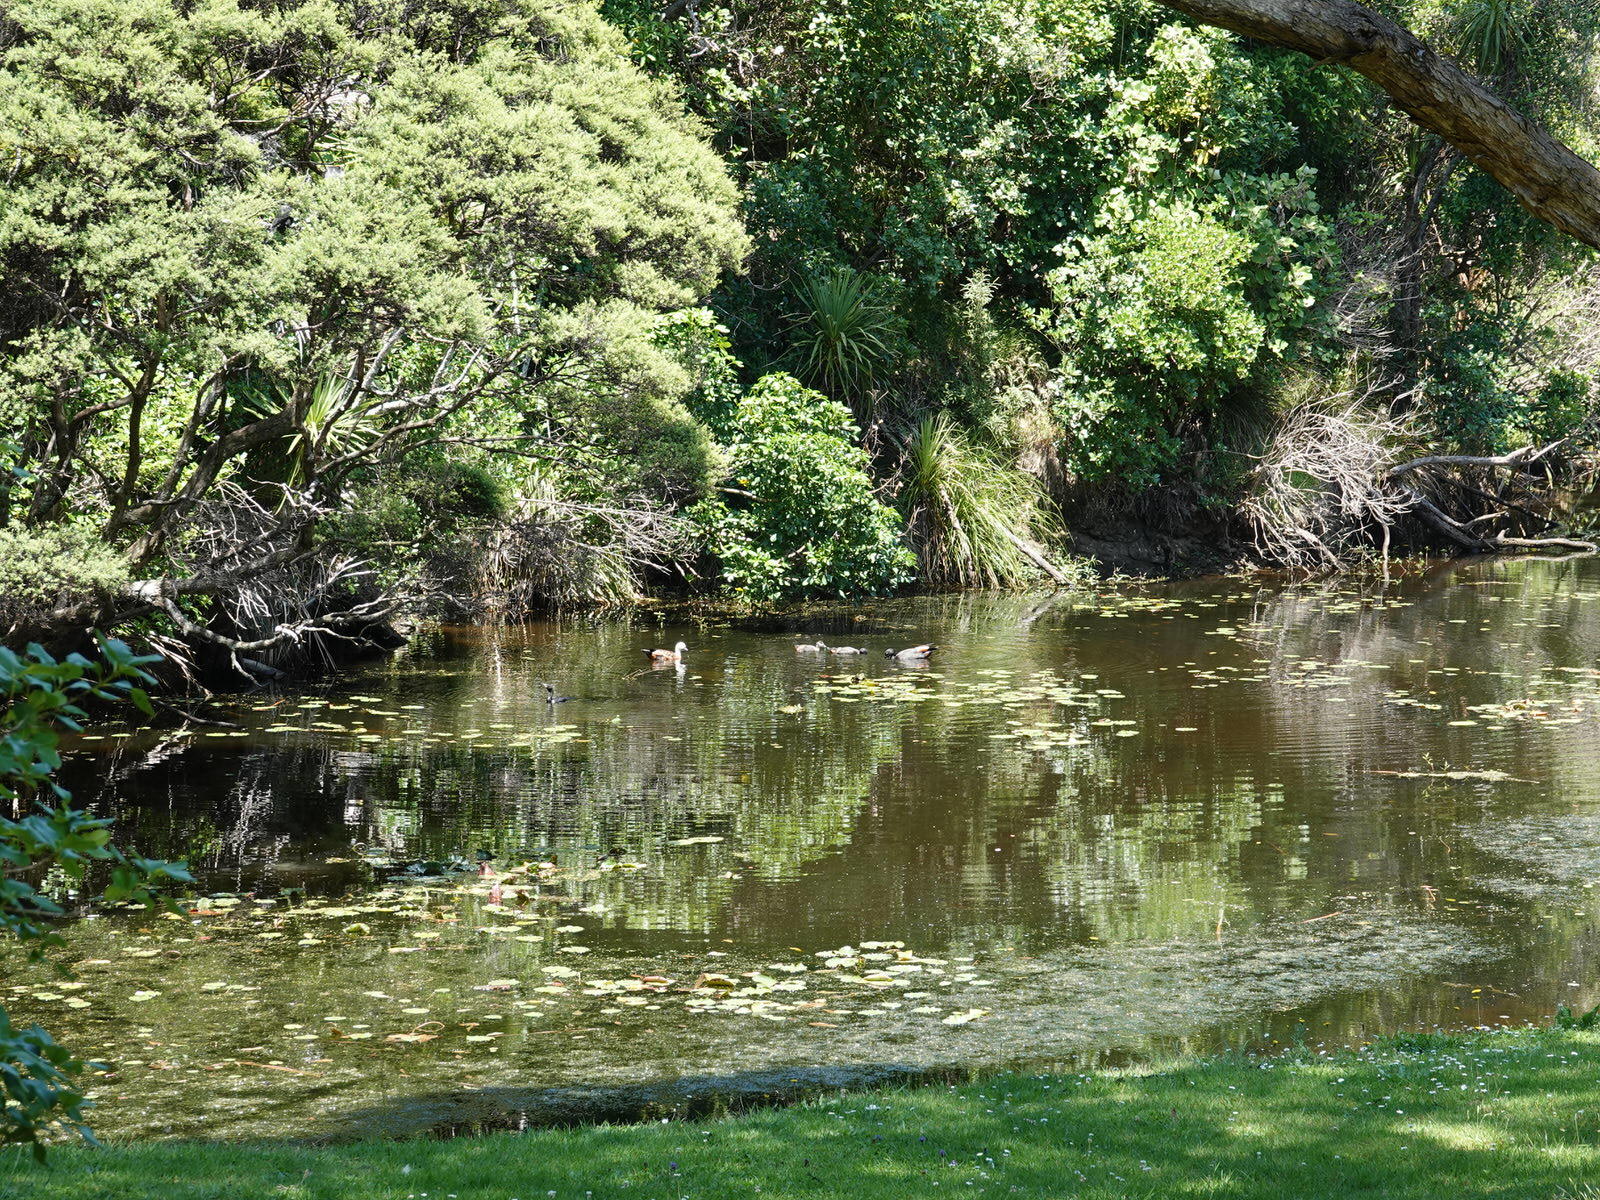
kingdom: Animalia
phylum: Chordata
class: Aves
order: Anseriformes
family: Anatidae
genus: Tadorna
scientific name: Tadorna variegata
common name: Paradise shelduck
